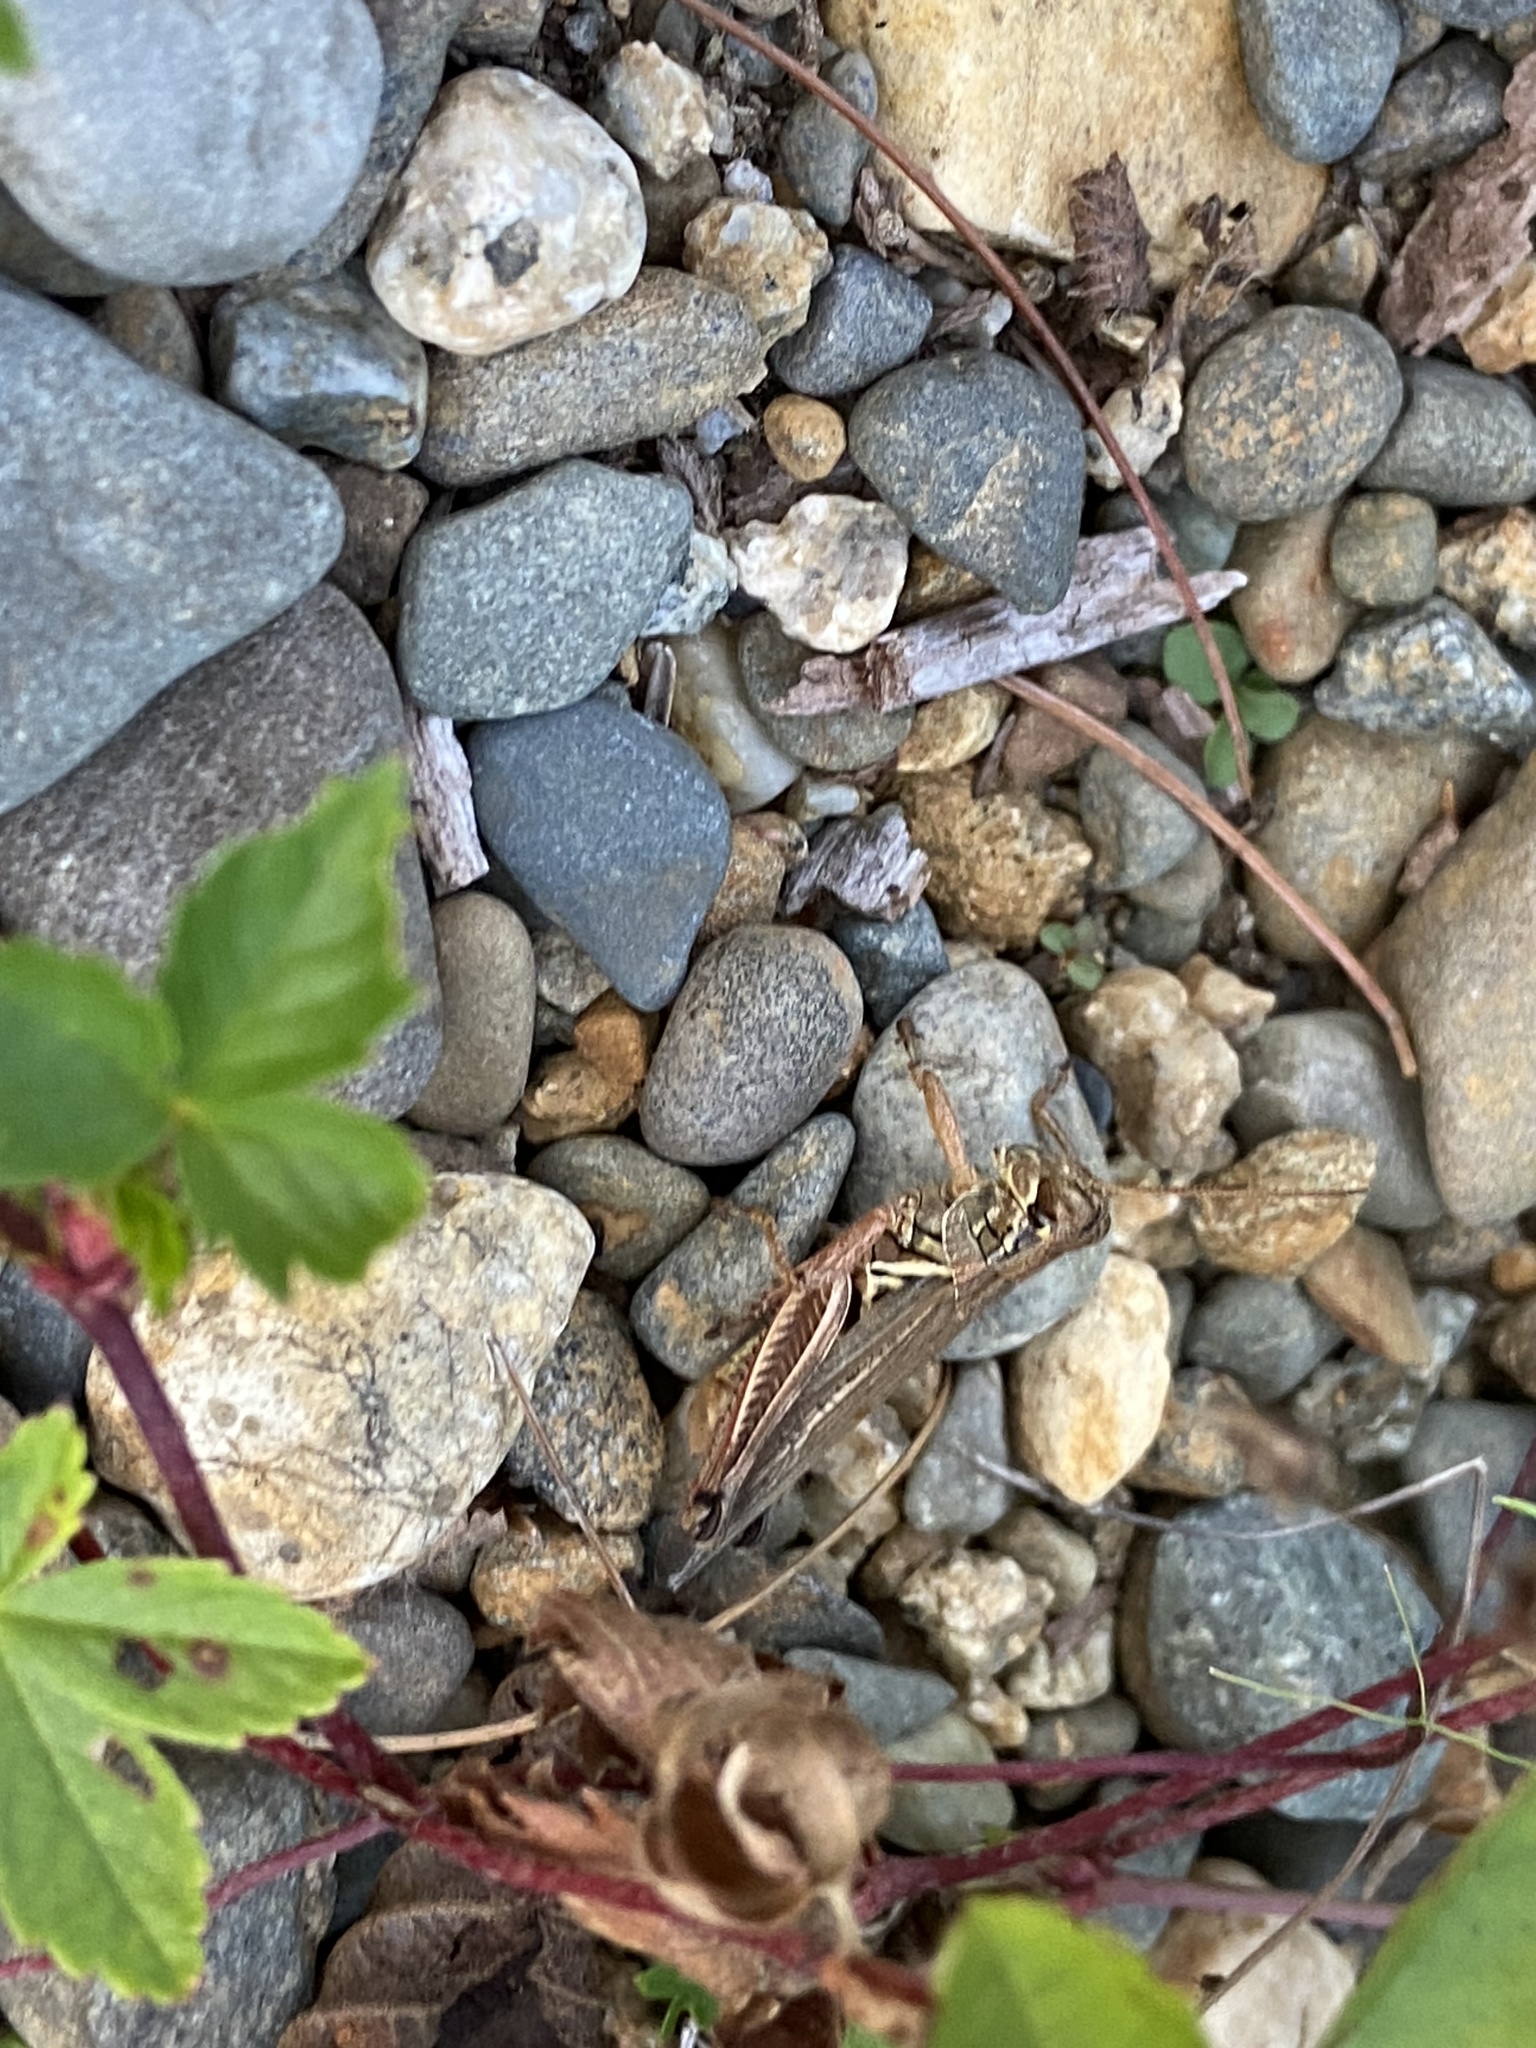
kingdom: Animalia
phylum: Arthropoda
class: Insecta
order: Orthoptera
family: Acrididae
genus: Melanoplus
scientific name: Melanoplus femurrubrum
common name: Red-legged grasshopper
